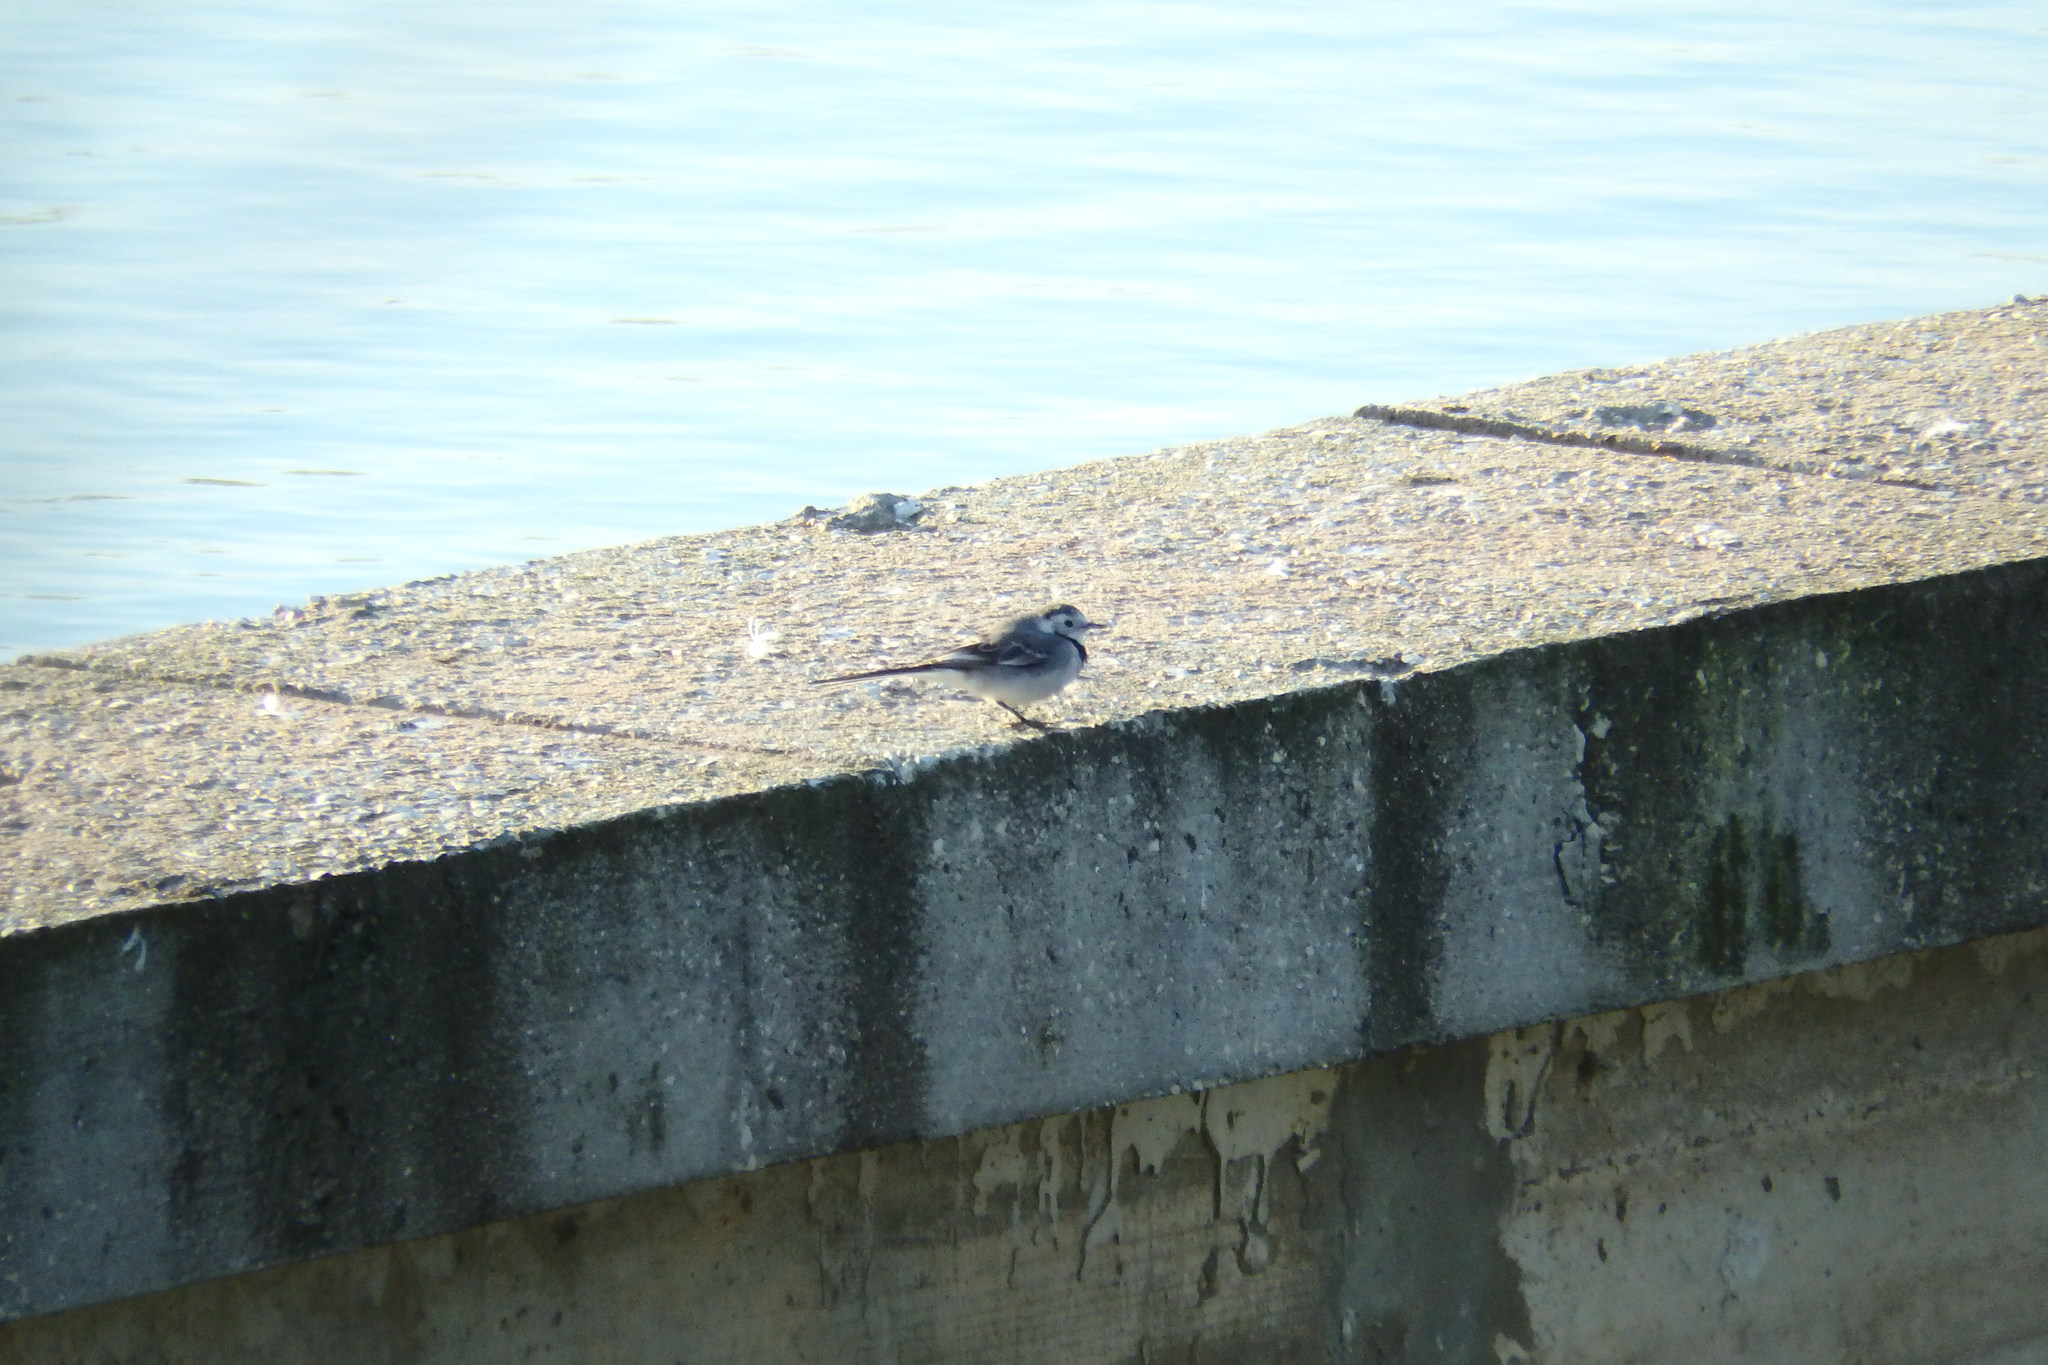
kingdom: Animalia
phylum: Chordata
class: Aves
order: Passeriformes
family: Motacillidae
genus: Motacilla
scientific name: Motacilla alba
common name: White wagtail
